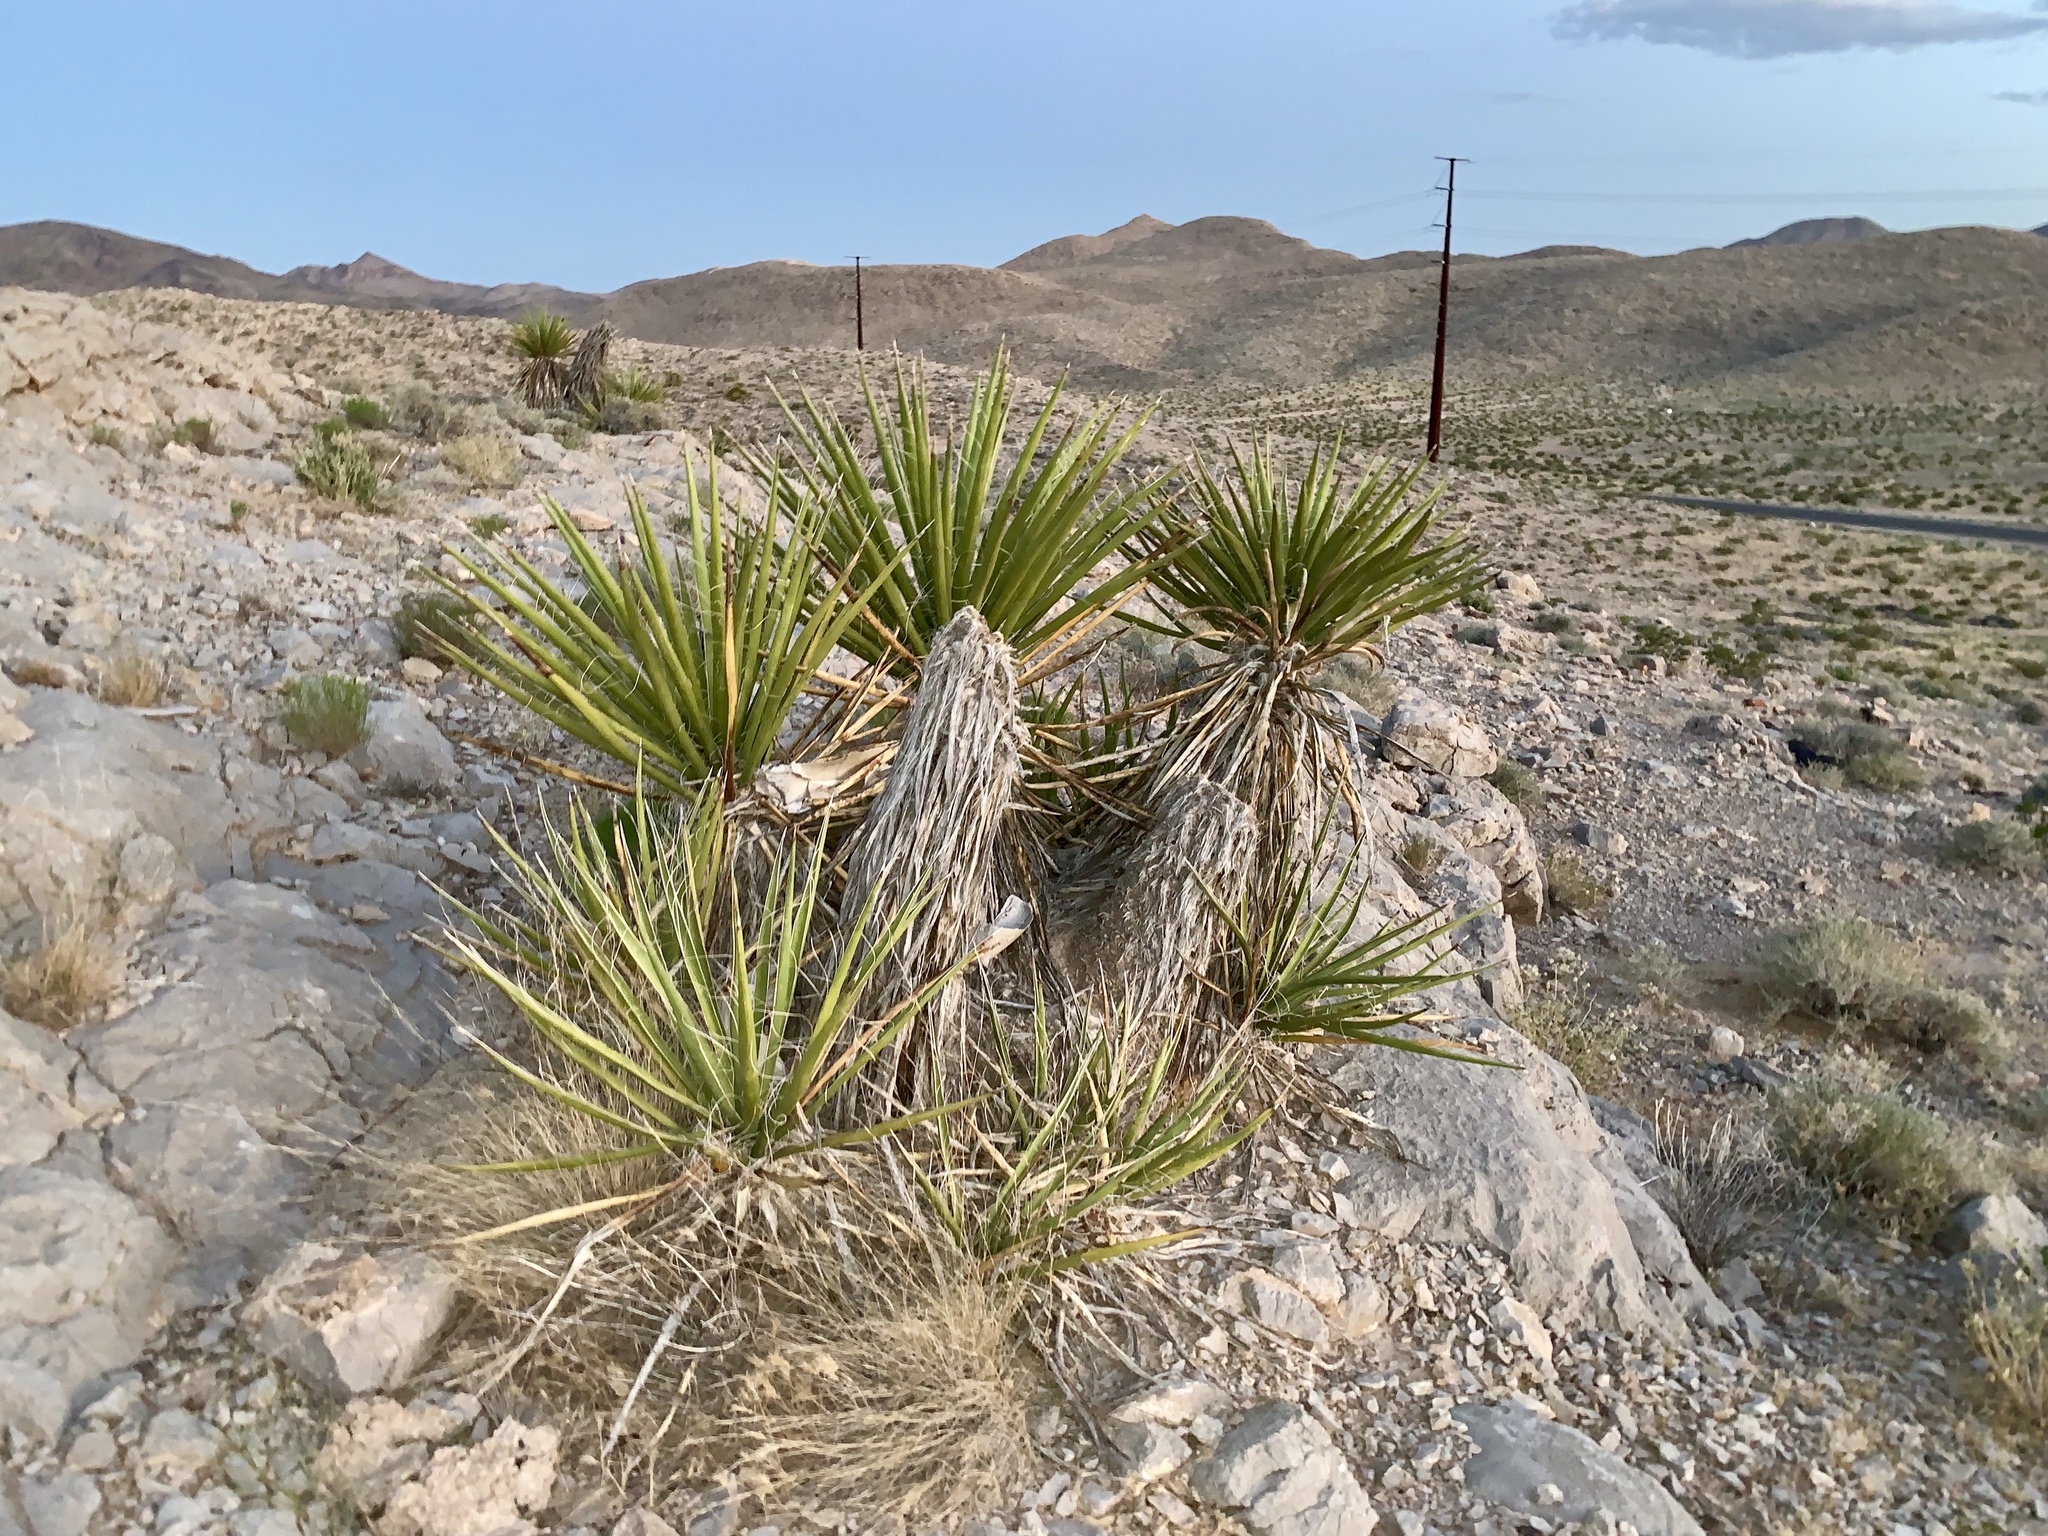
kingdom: Plantae
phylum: Tracheophyta
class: Liliopsida
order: Asparagales
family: Asparagaceae
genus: Yucca
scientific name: Yucca schidigera
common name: Mojave yucca
